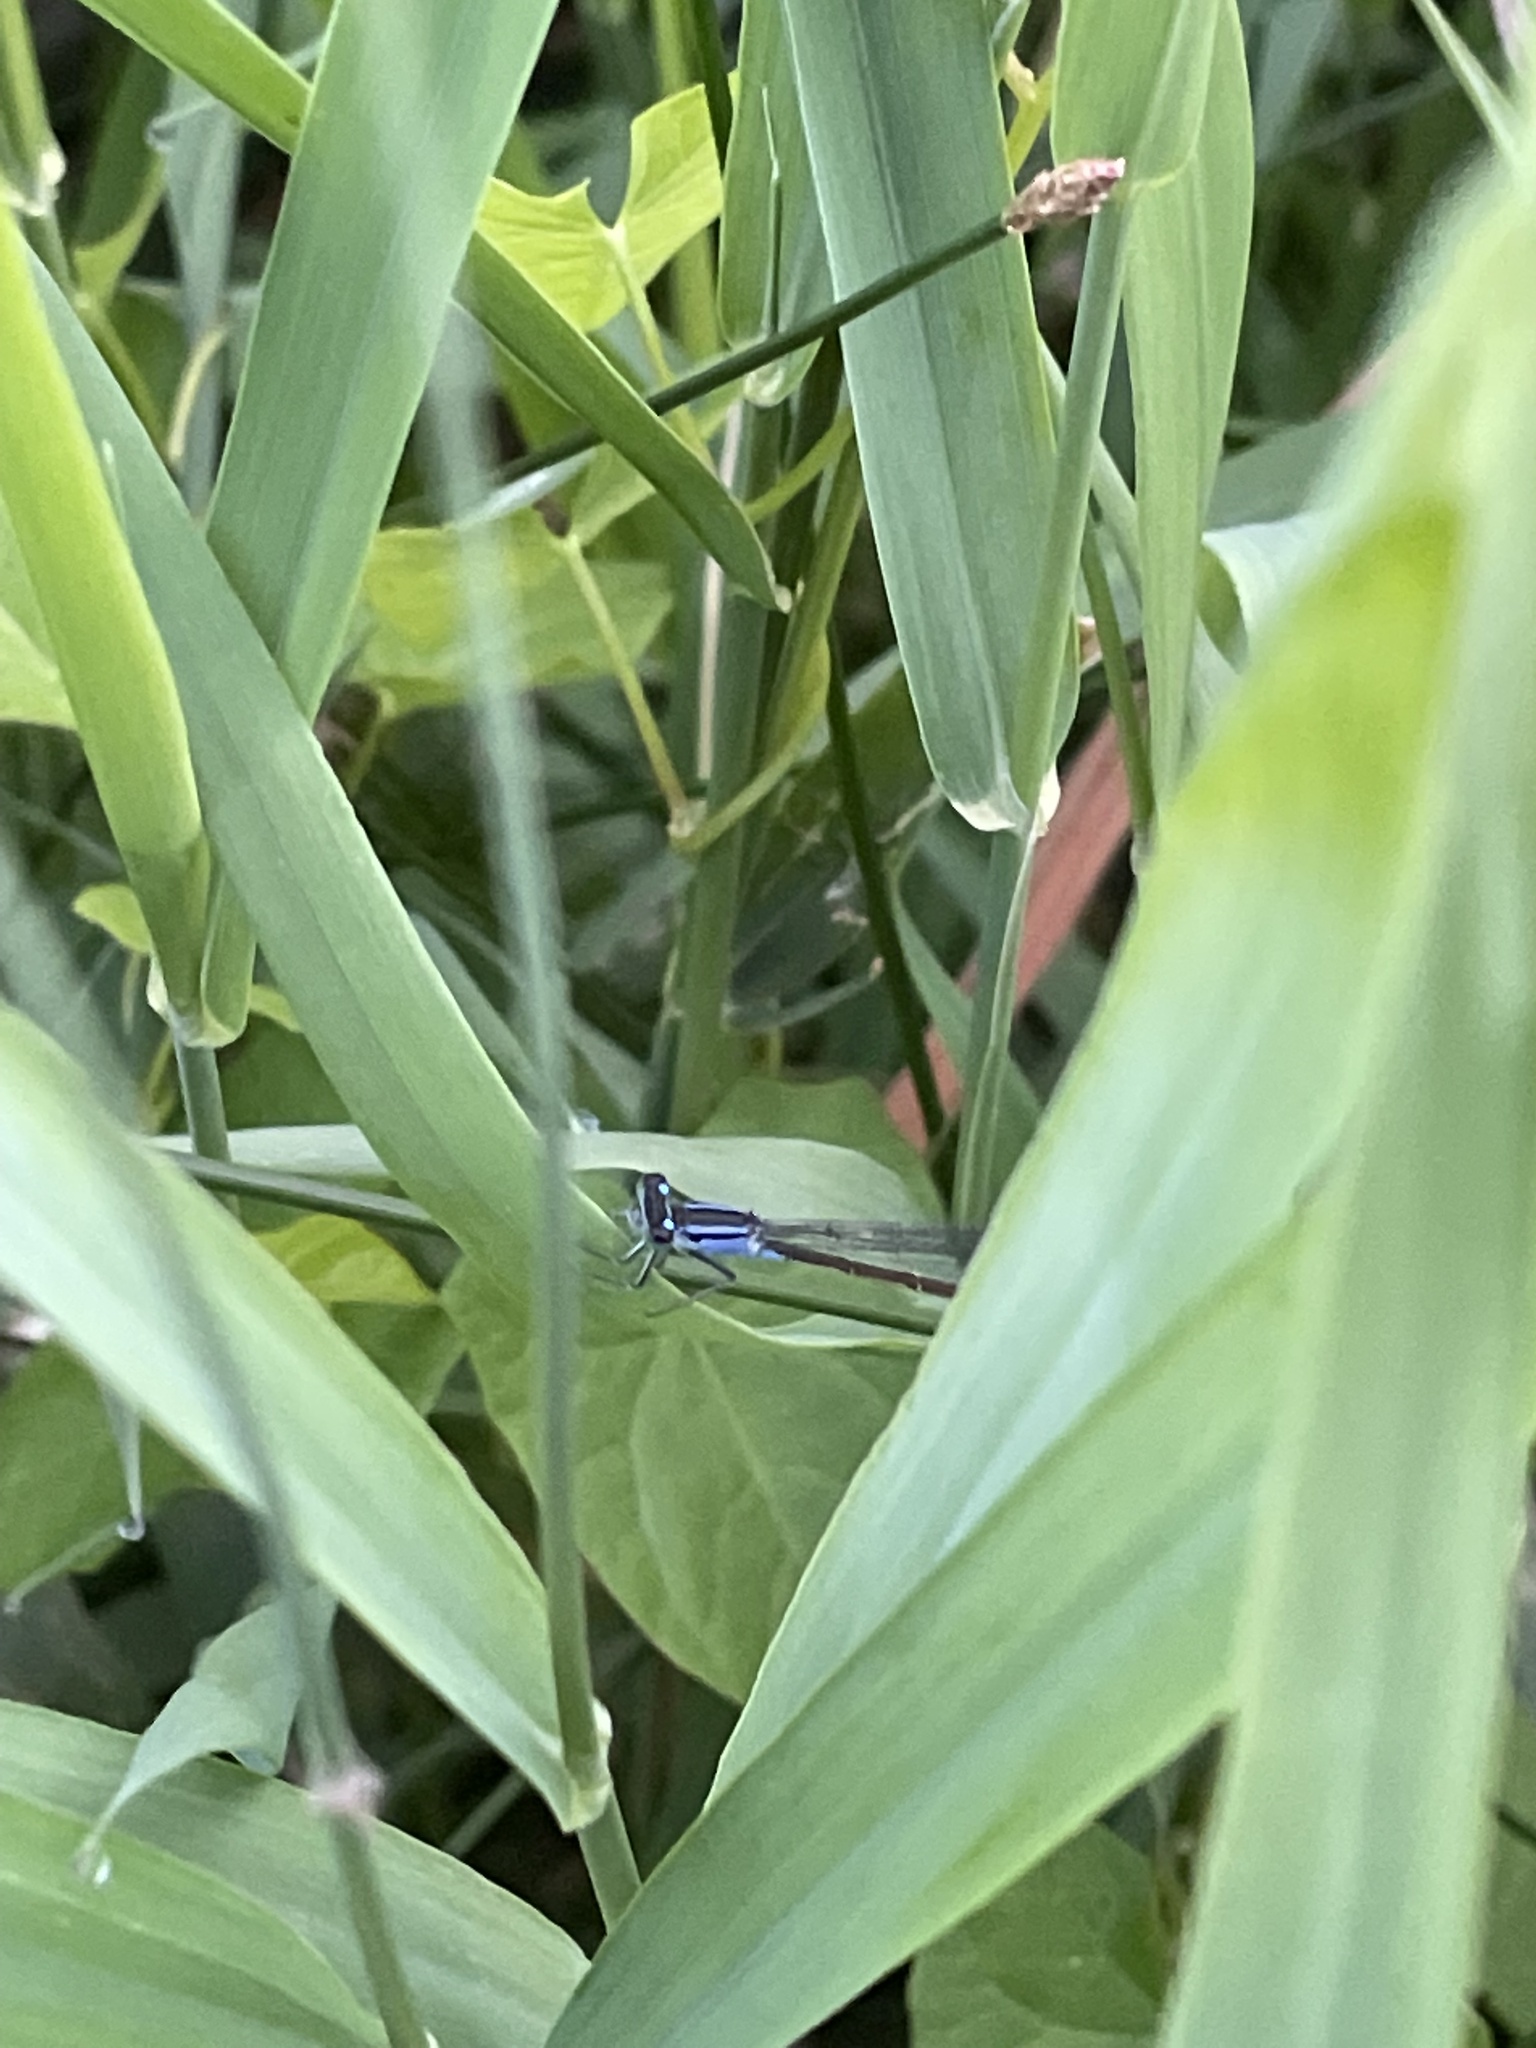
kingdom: Animalia
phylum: Arthropoda
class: Insecta
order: Odonata
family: Coenagrionidae
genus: Ischnura
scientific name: Ischnura elegans
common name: Blue-tailed damselfly
